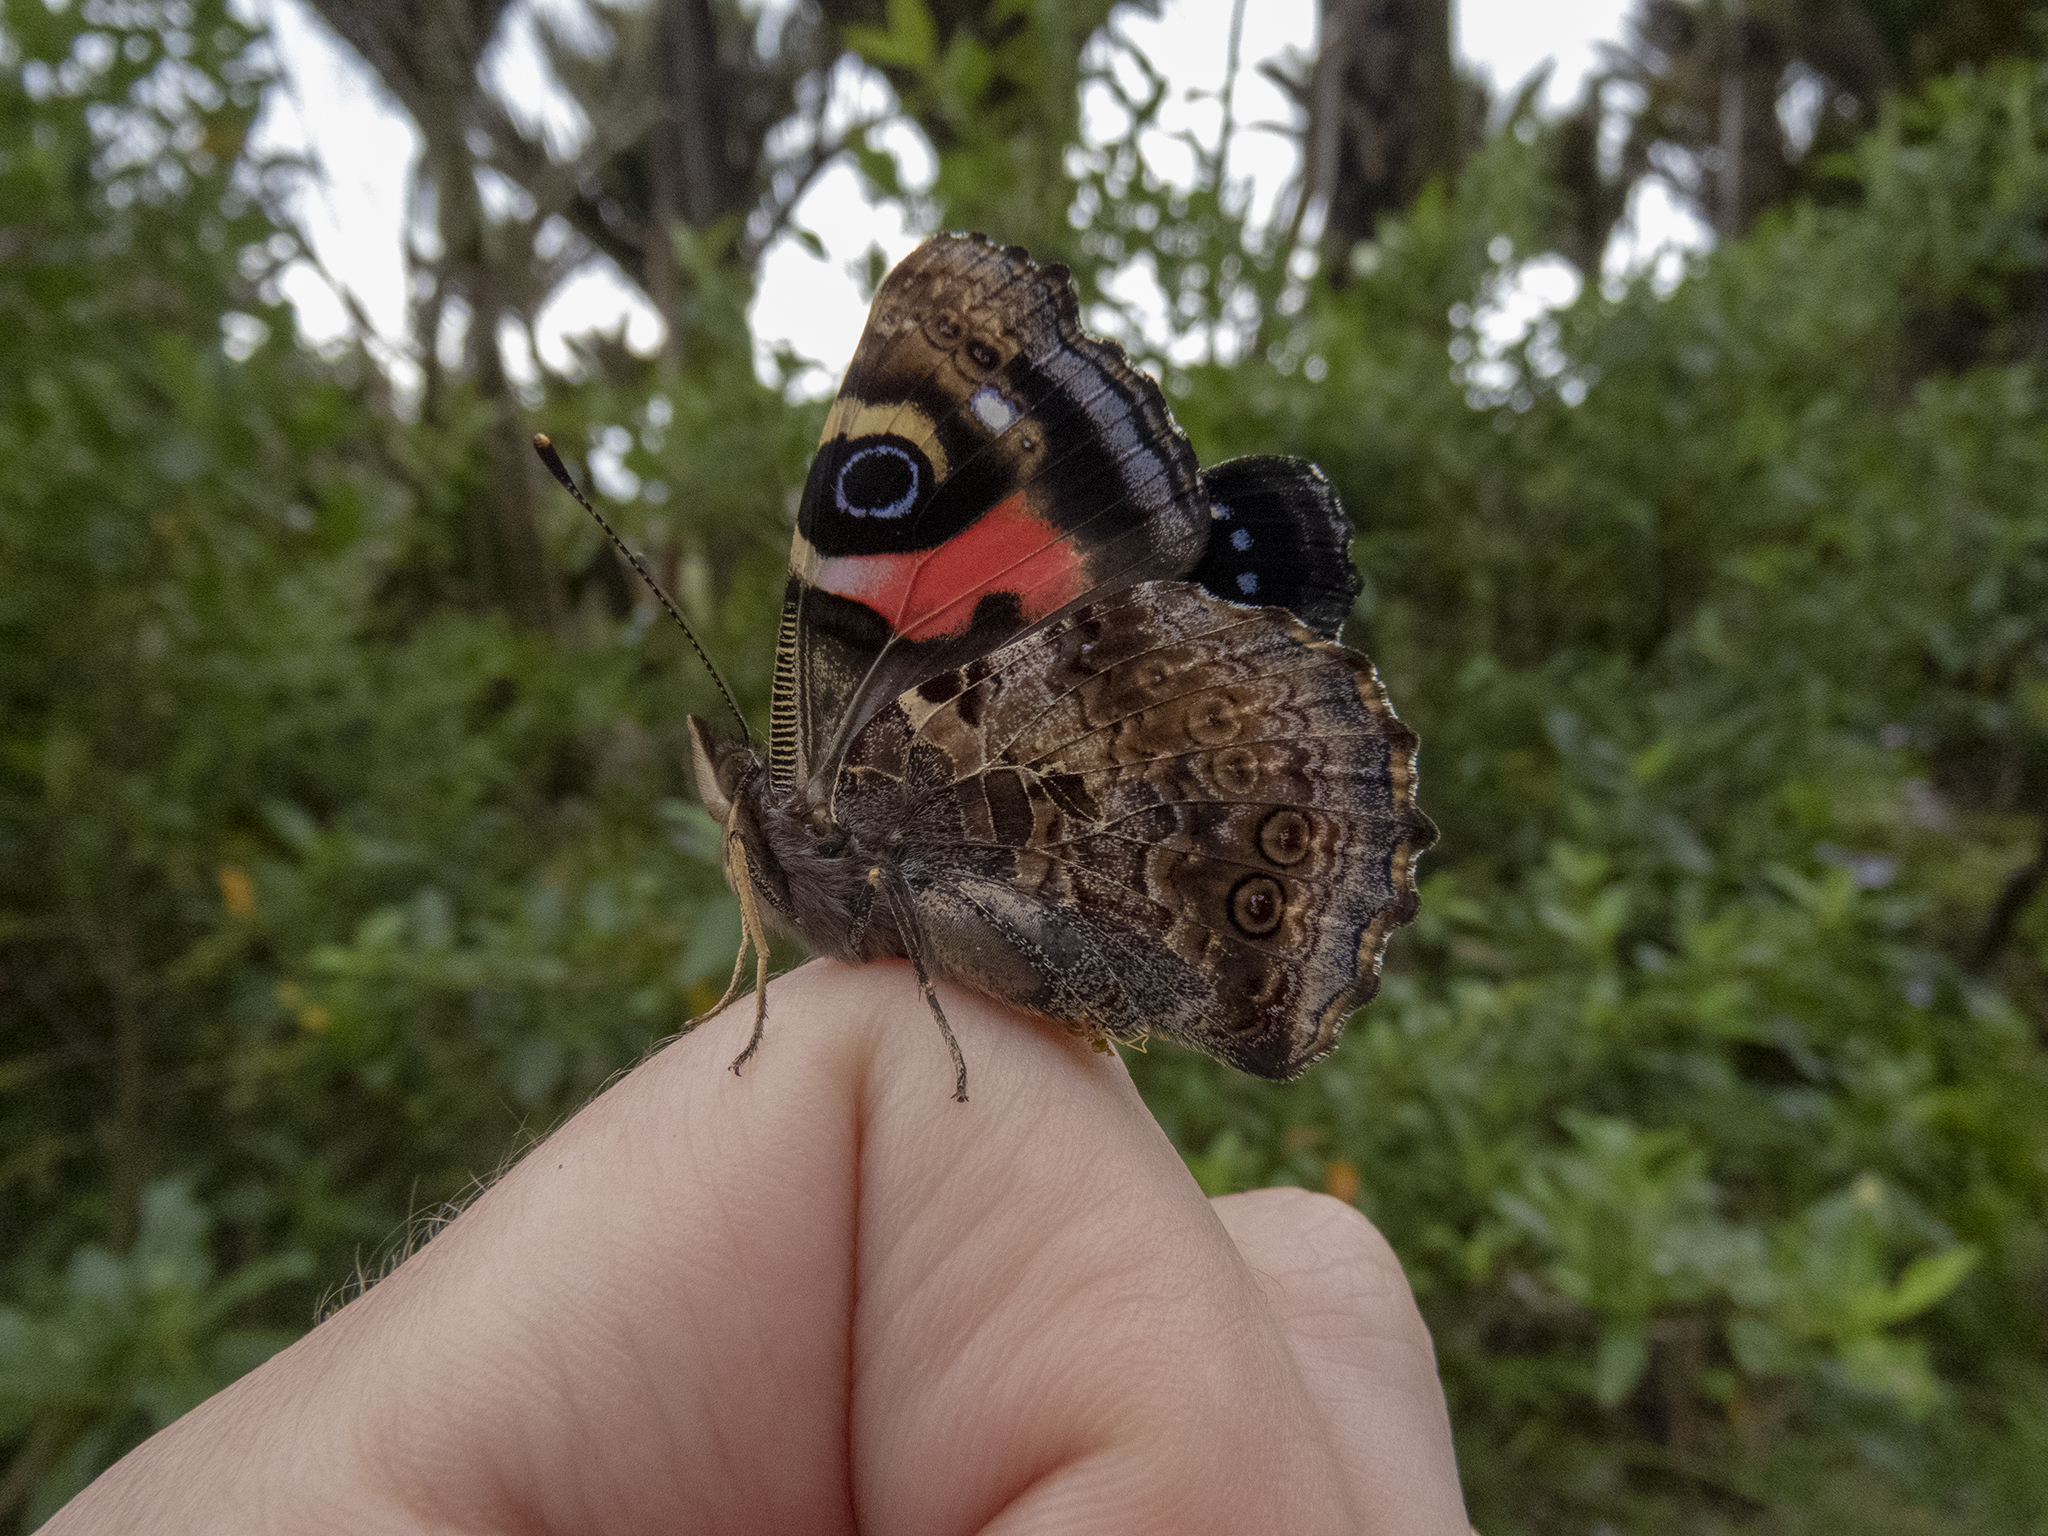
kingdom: Animalia
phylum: Arthropoda
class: Insecta
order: Lepidoptera
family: Nymphalidae
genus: Vanessa
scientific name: Vanessa gonerilla
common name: New zealand red admiral
